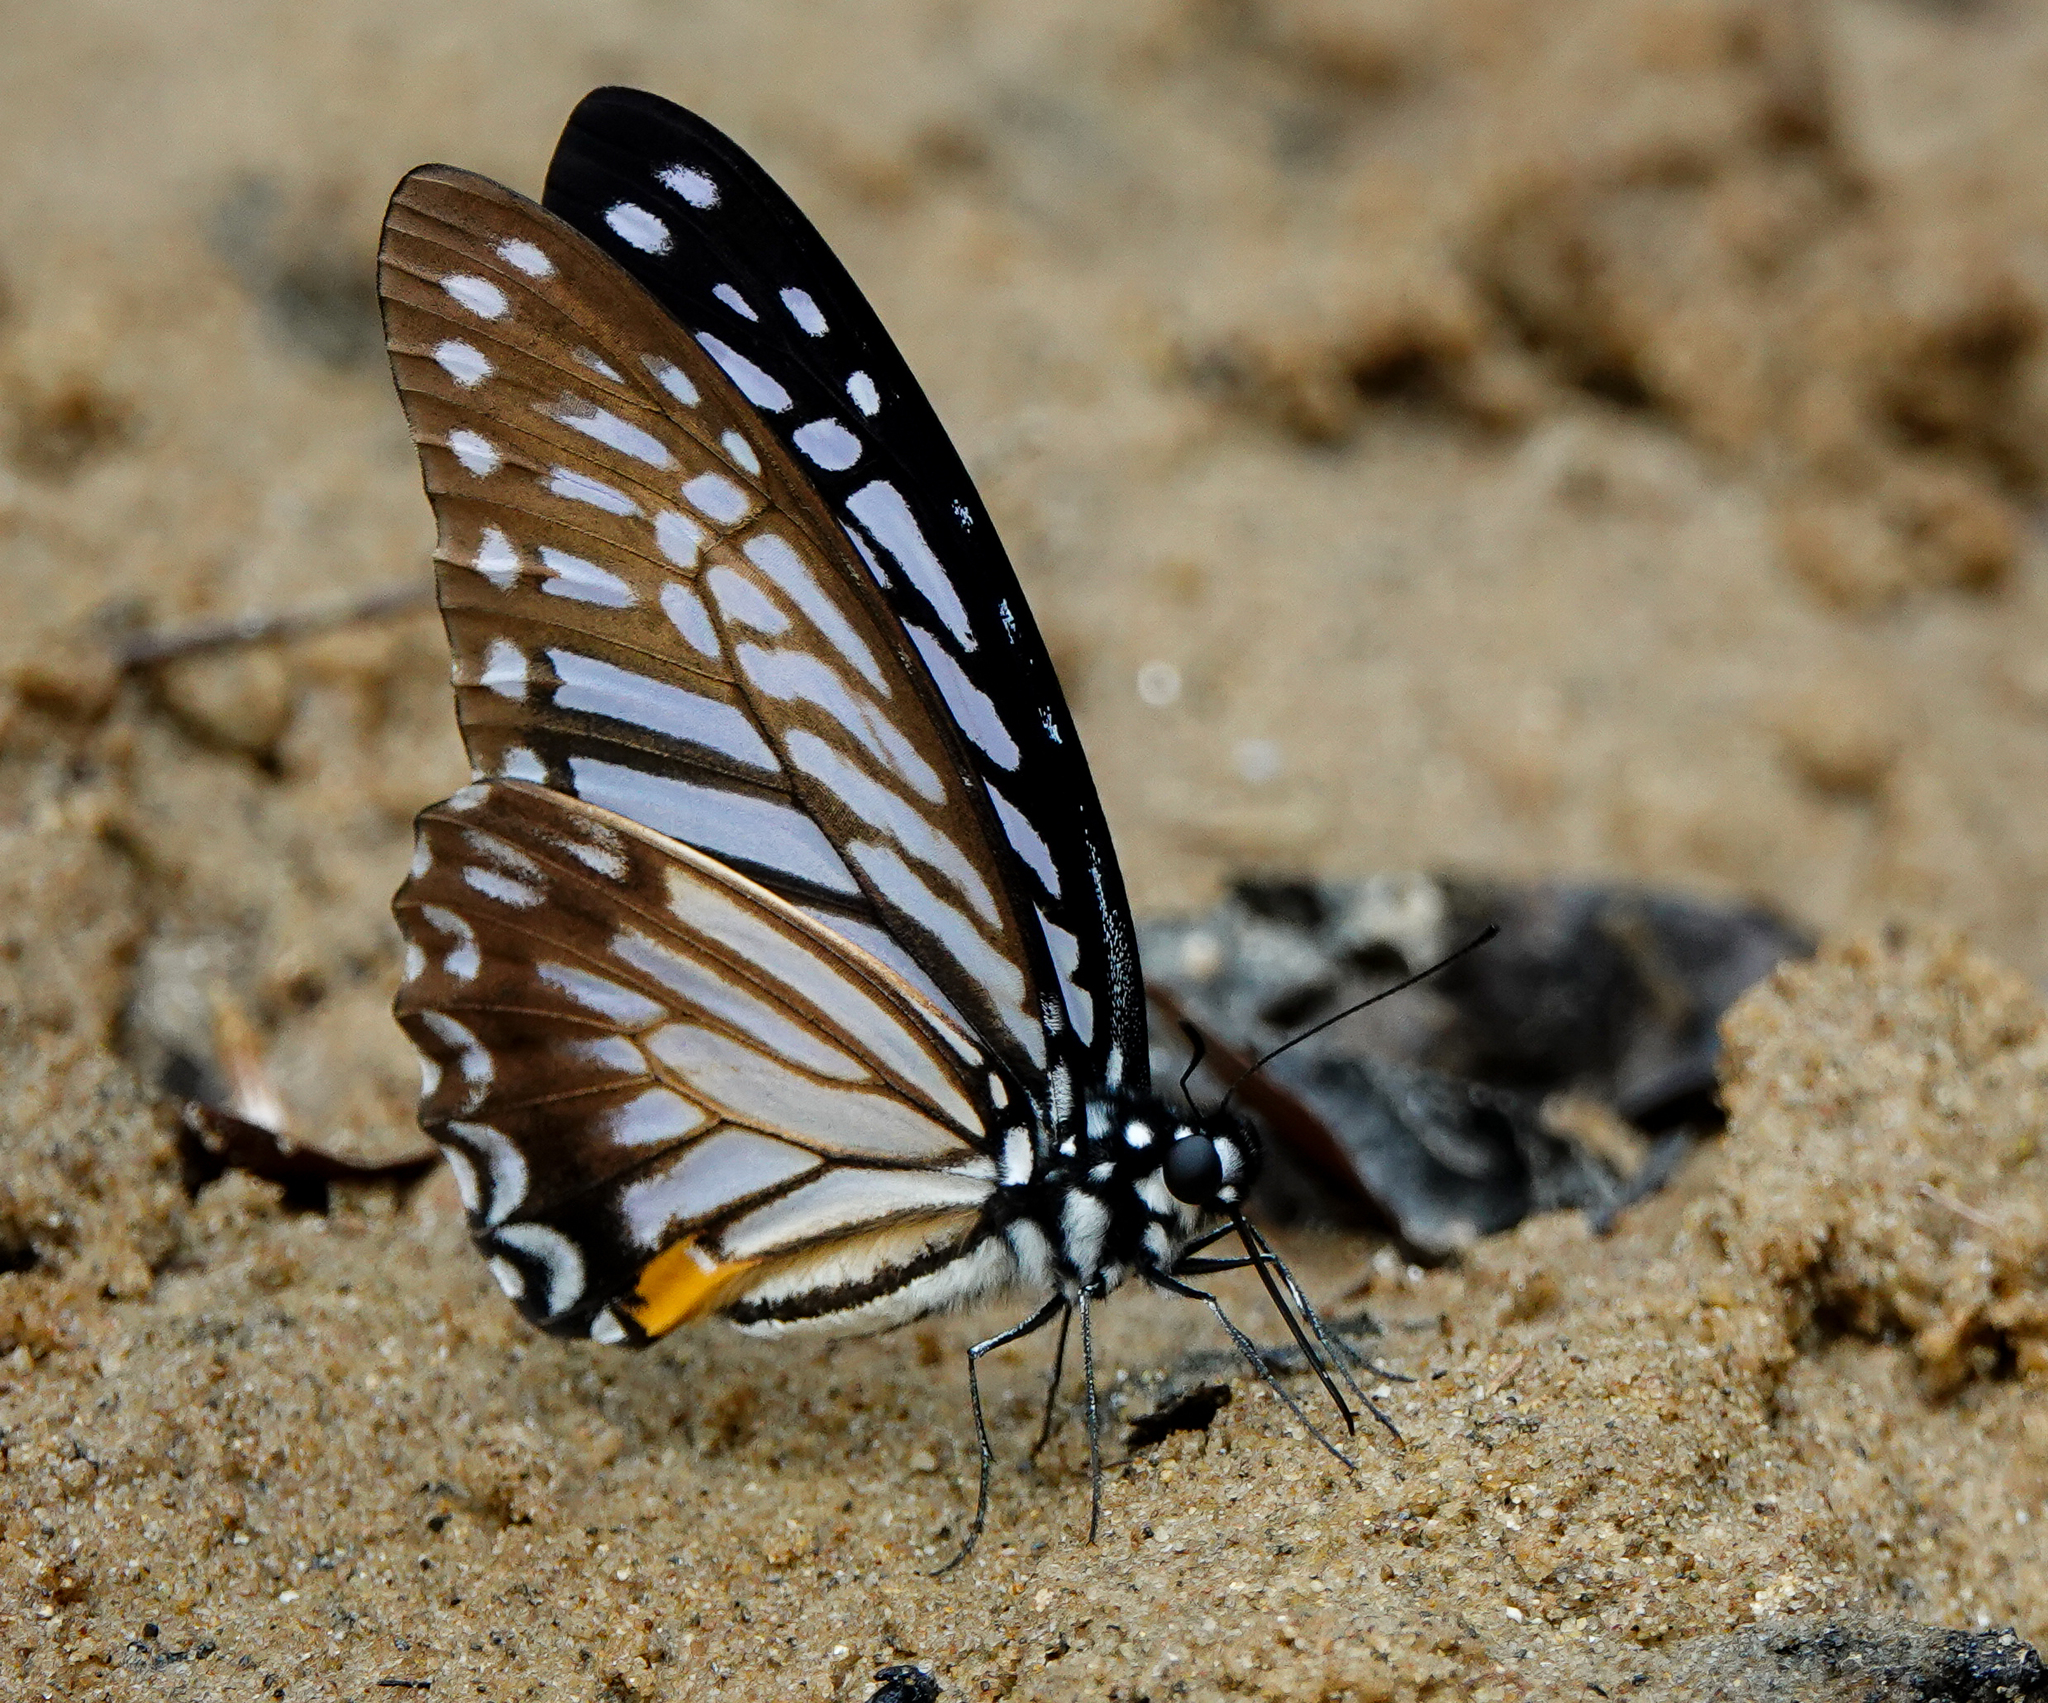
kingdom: Animalia
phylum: Arthropoda
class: Insecta
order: Lepidoptera
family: Papilionidae
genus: Graphium
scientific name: Graphium xenocles
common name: Great zebra
